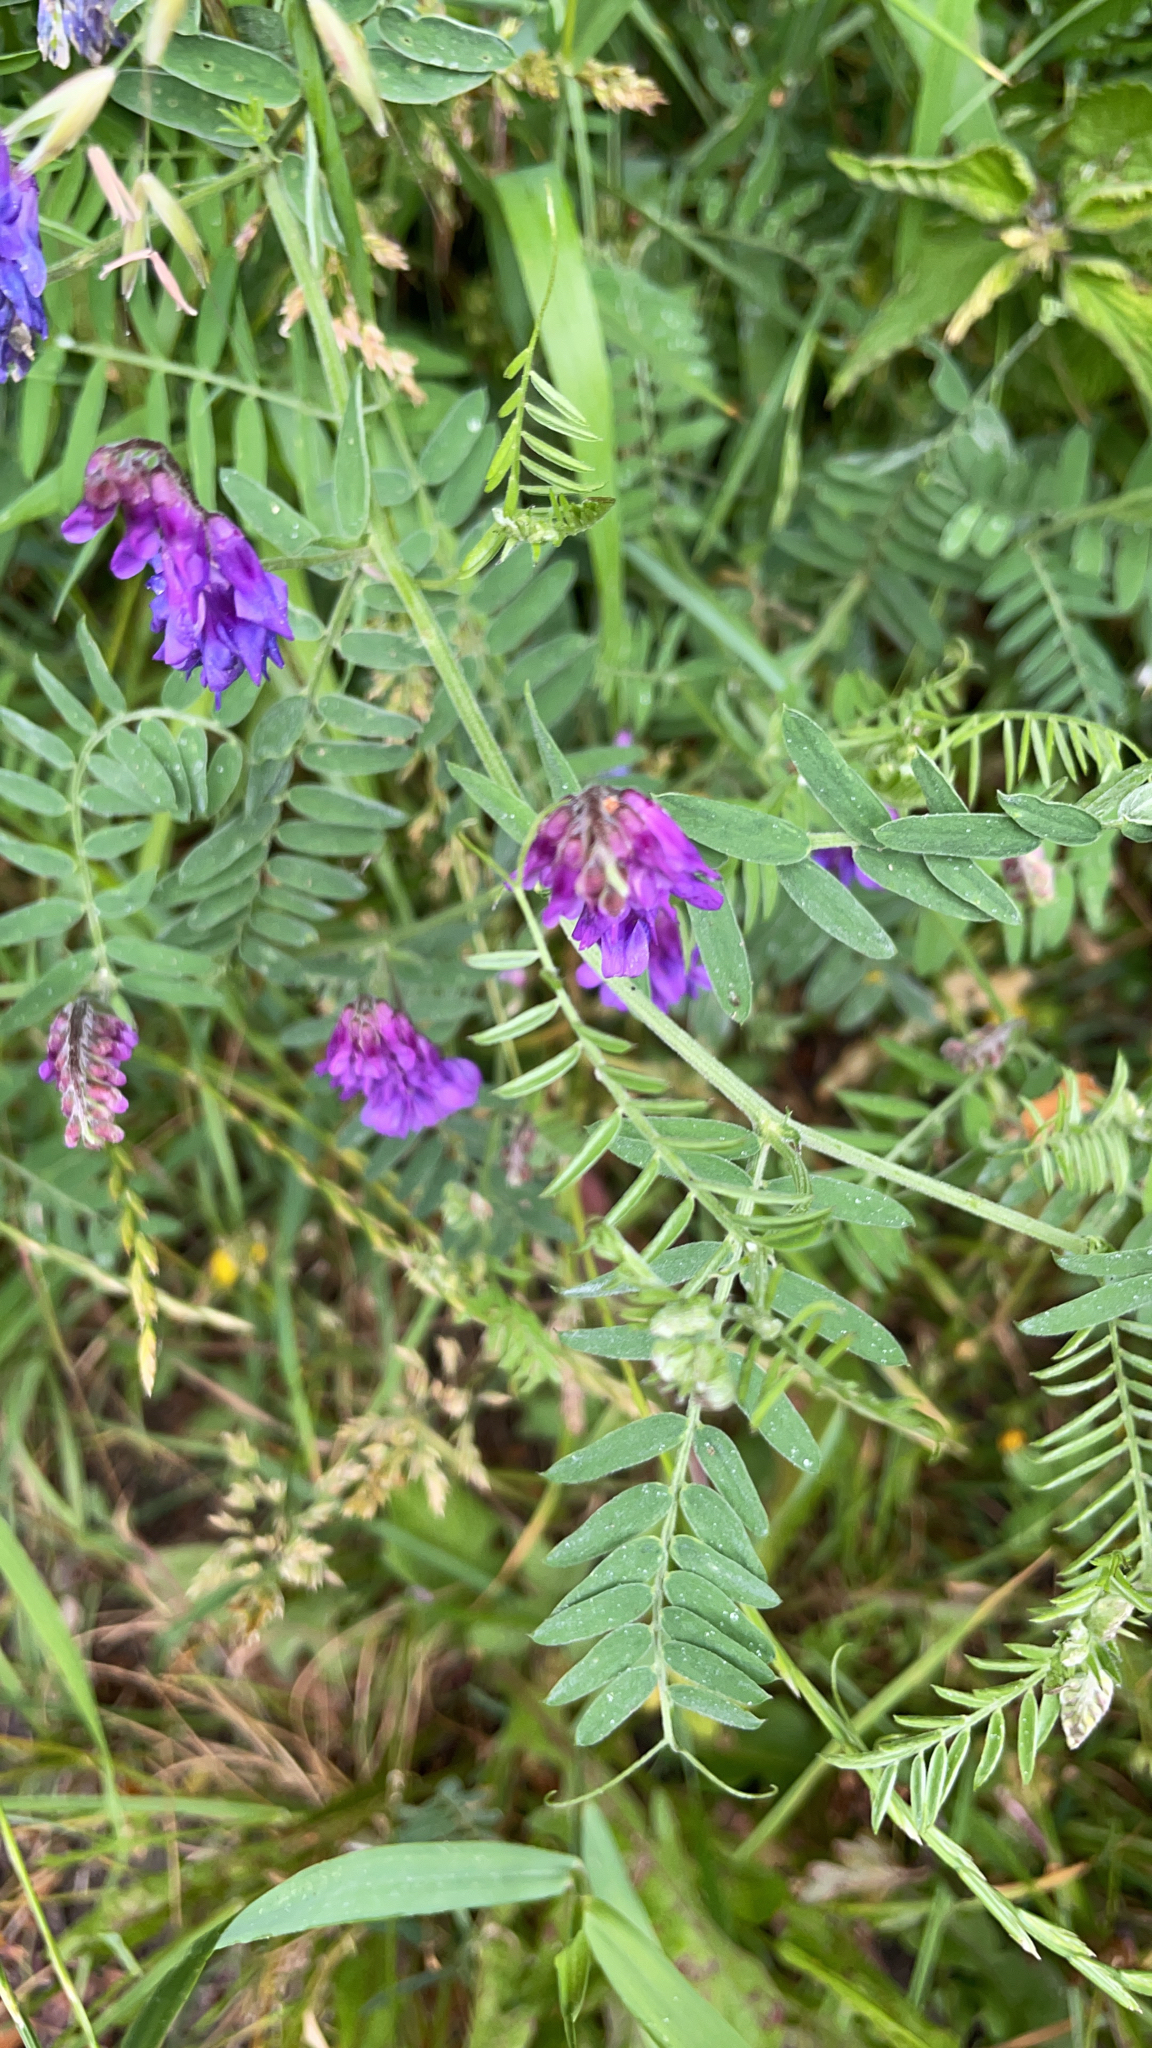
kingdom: Plantae
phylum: Tracheophyta
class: Magnoliopsida
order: Fabales
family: Fabaceae
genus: Vicia
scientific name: Vicia cracca
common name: Bird vetch
